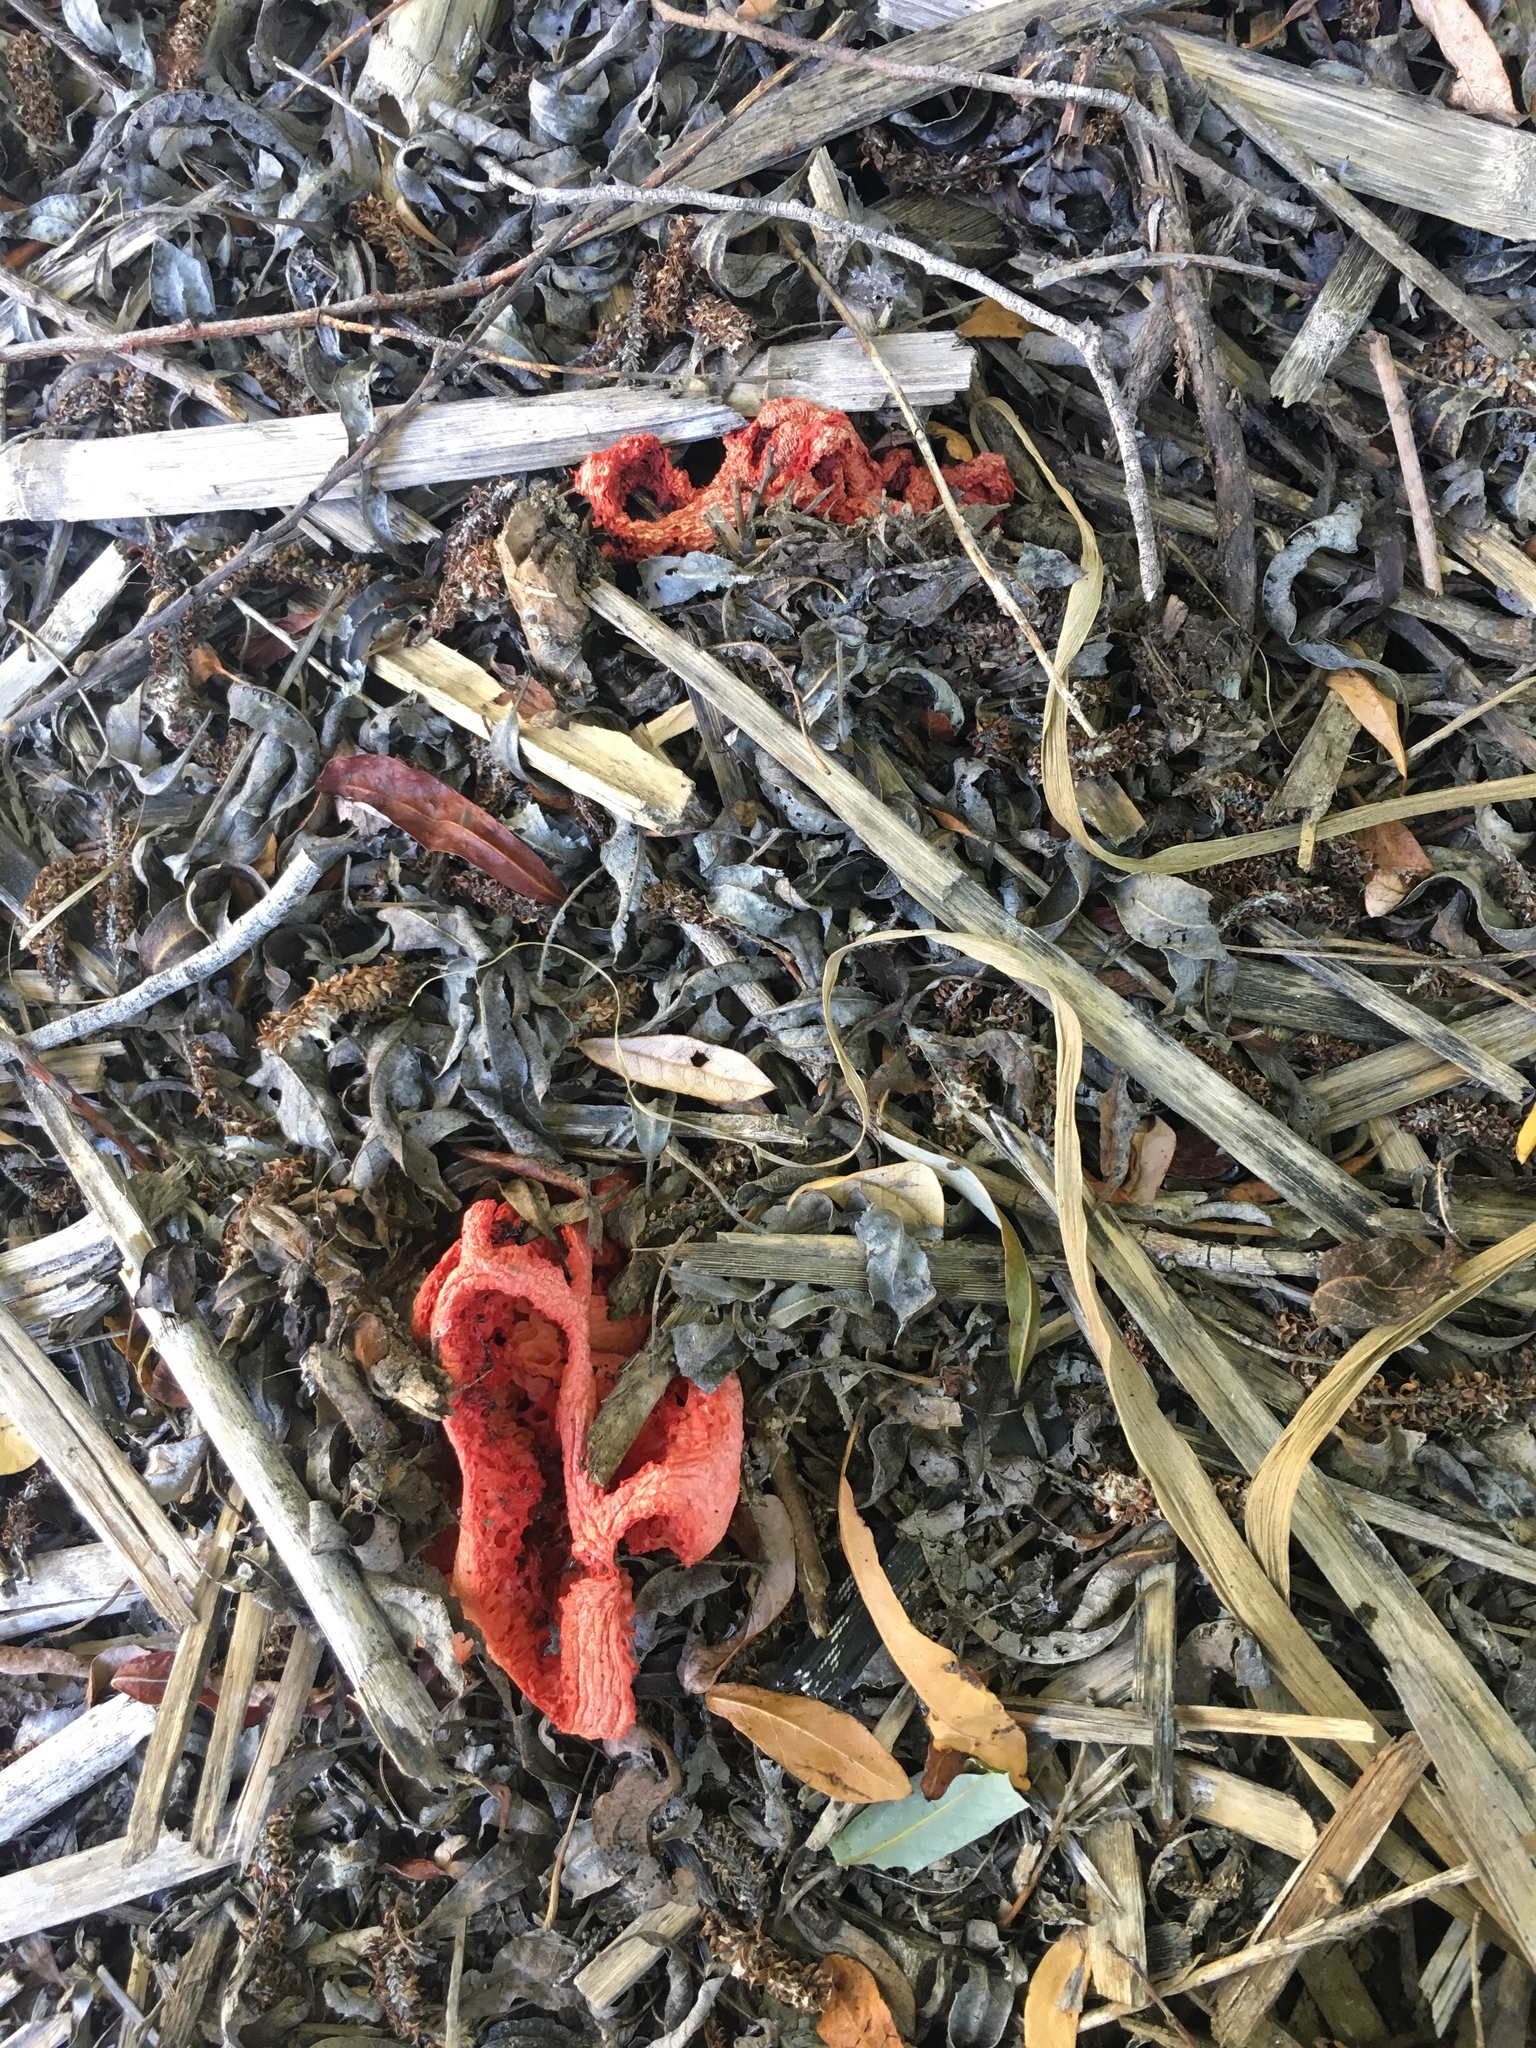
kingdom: Fungi
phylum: Basidiomycota
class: Agaricomycetes
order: Phallales
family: Phallaceae
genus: Clathrus
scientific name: Clathrus ruber
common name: Red cage
